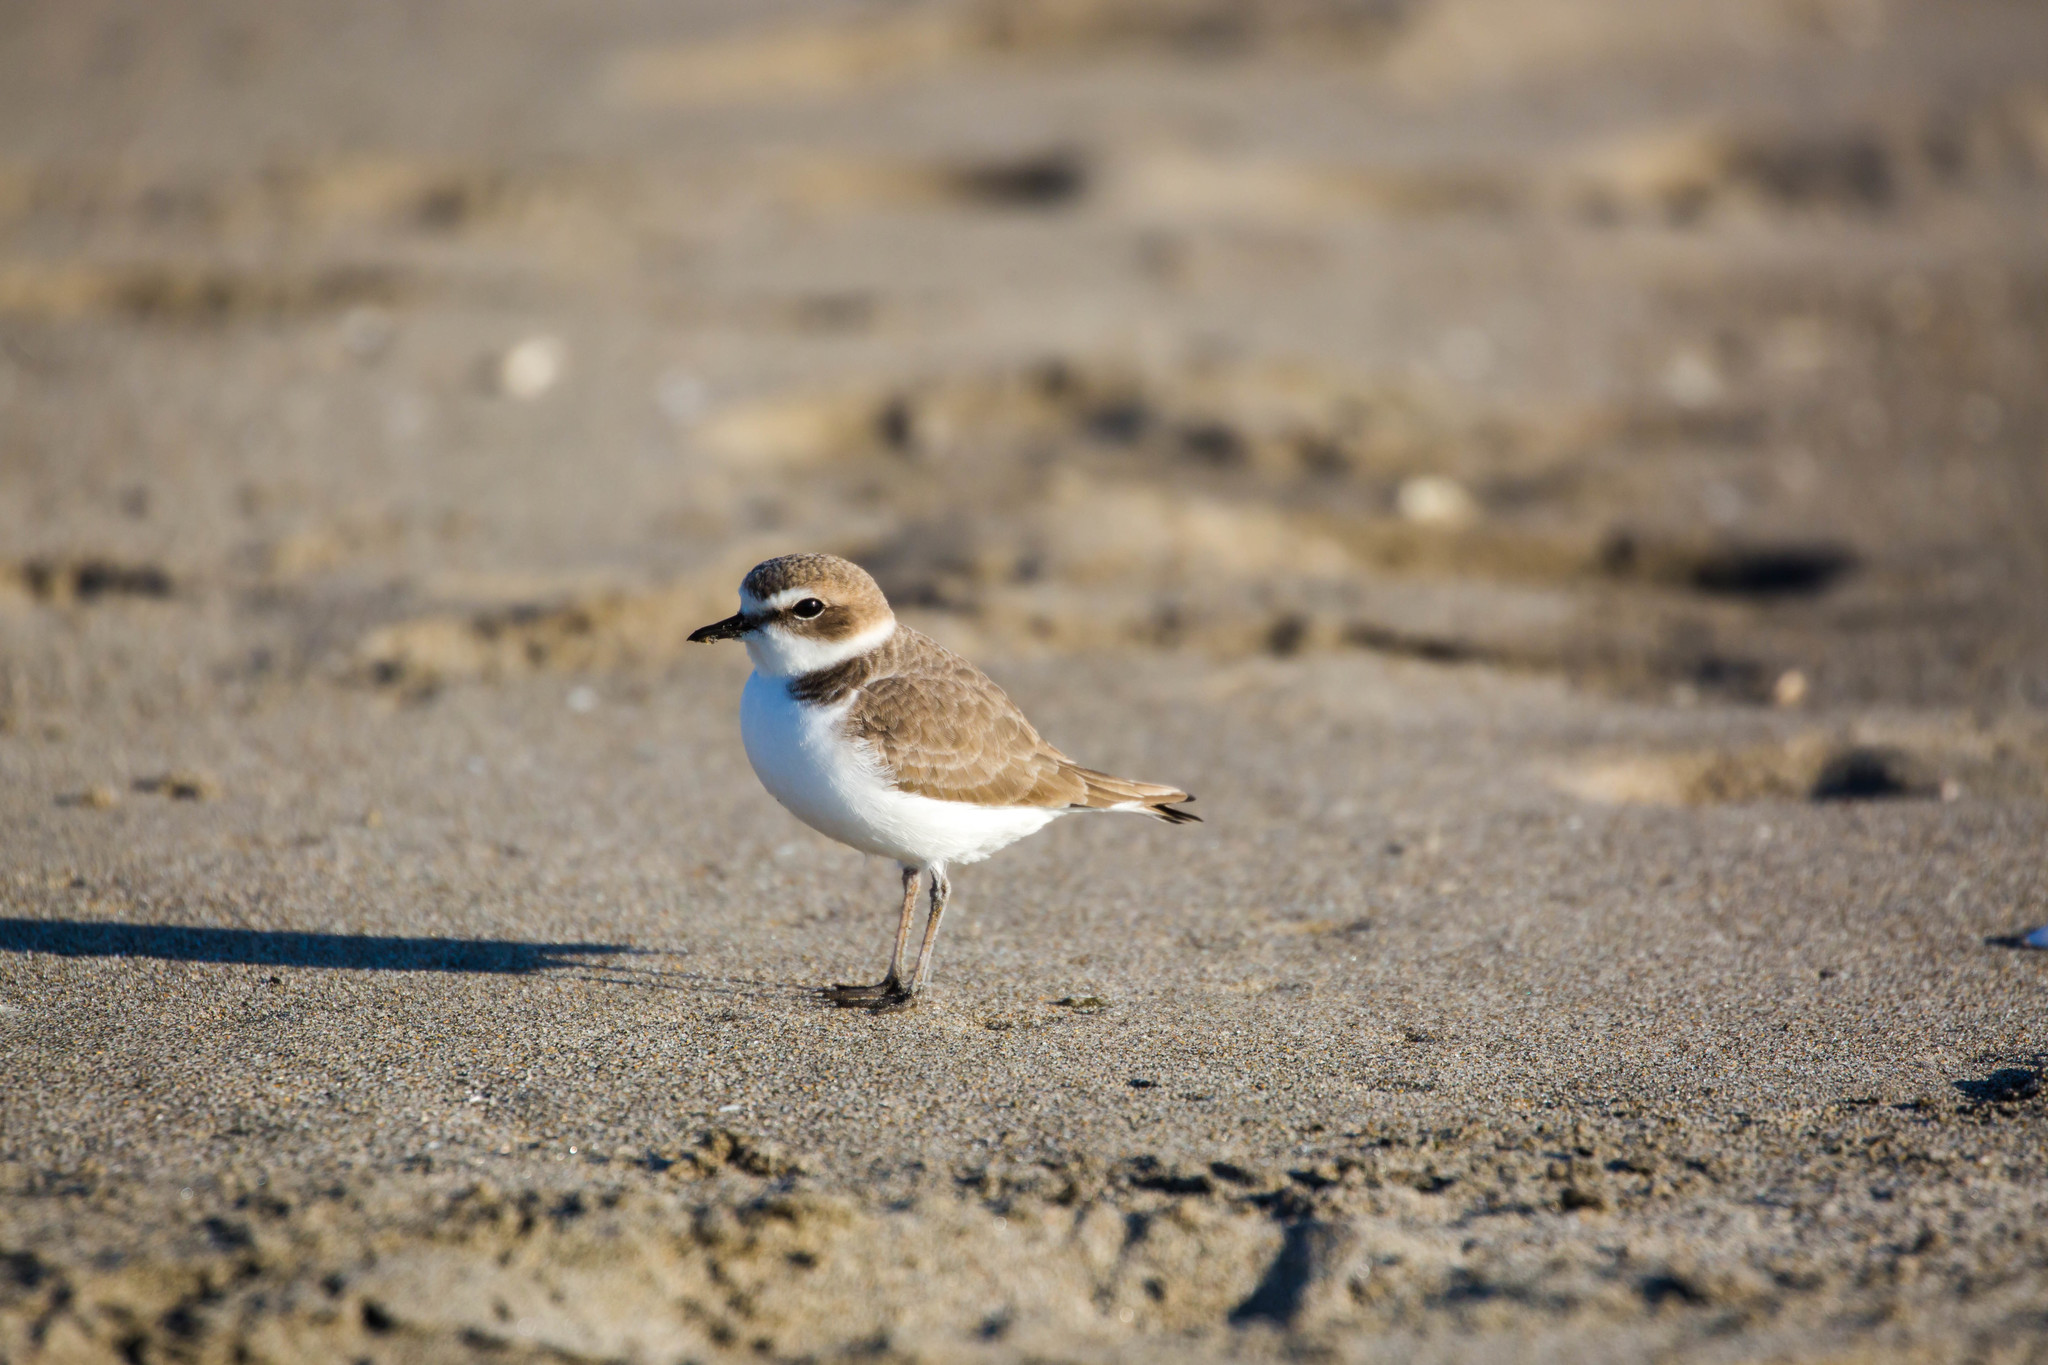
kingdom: Animalia
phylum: Chordata
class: Aves
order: Charadriiformes
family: Charadriidae
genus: Anarhynchus
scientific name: Anarhynchus
